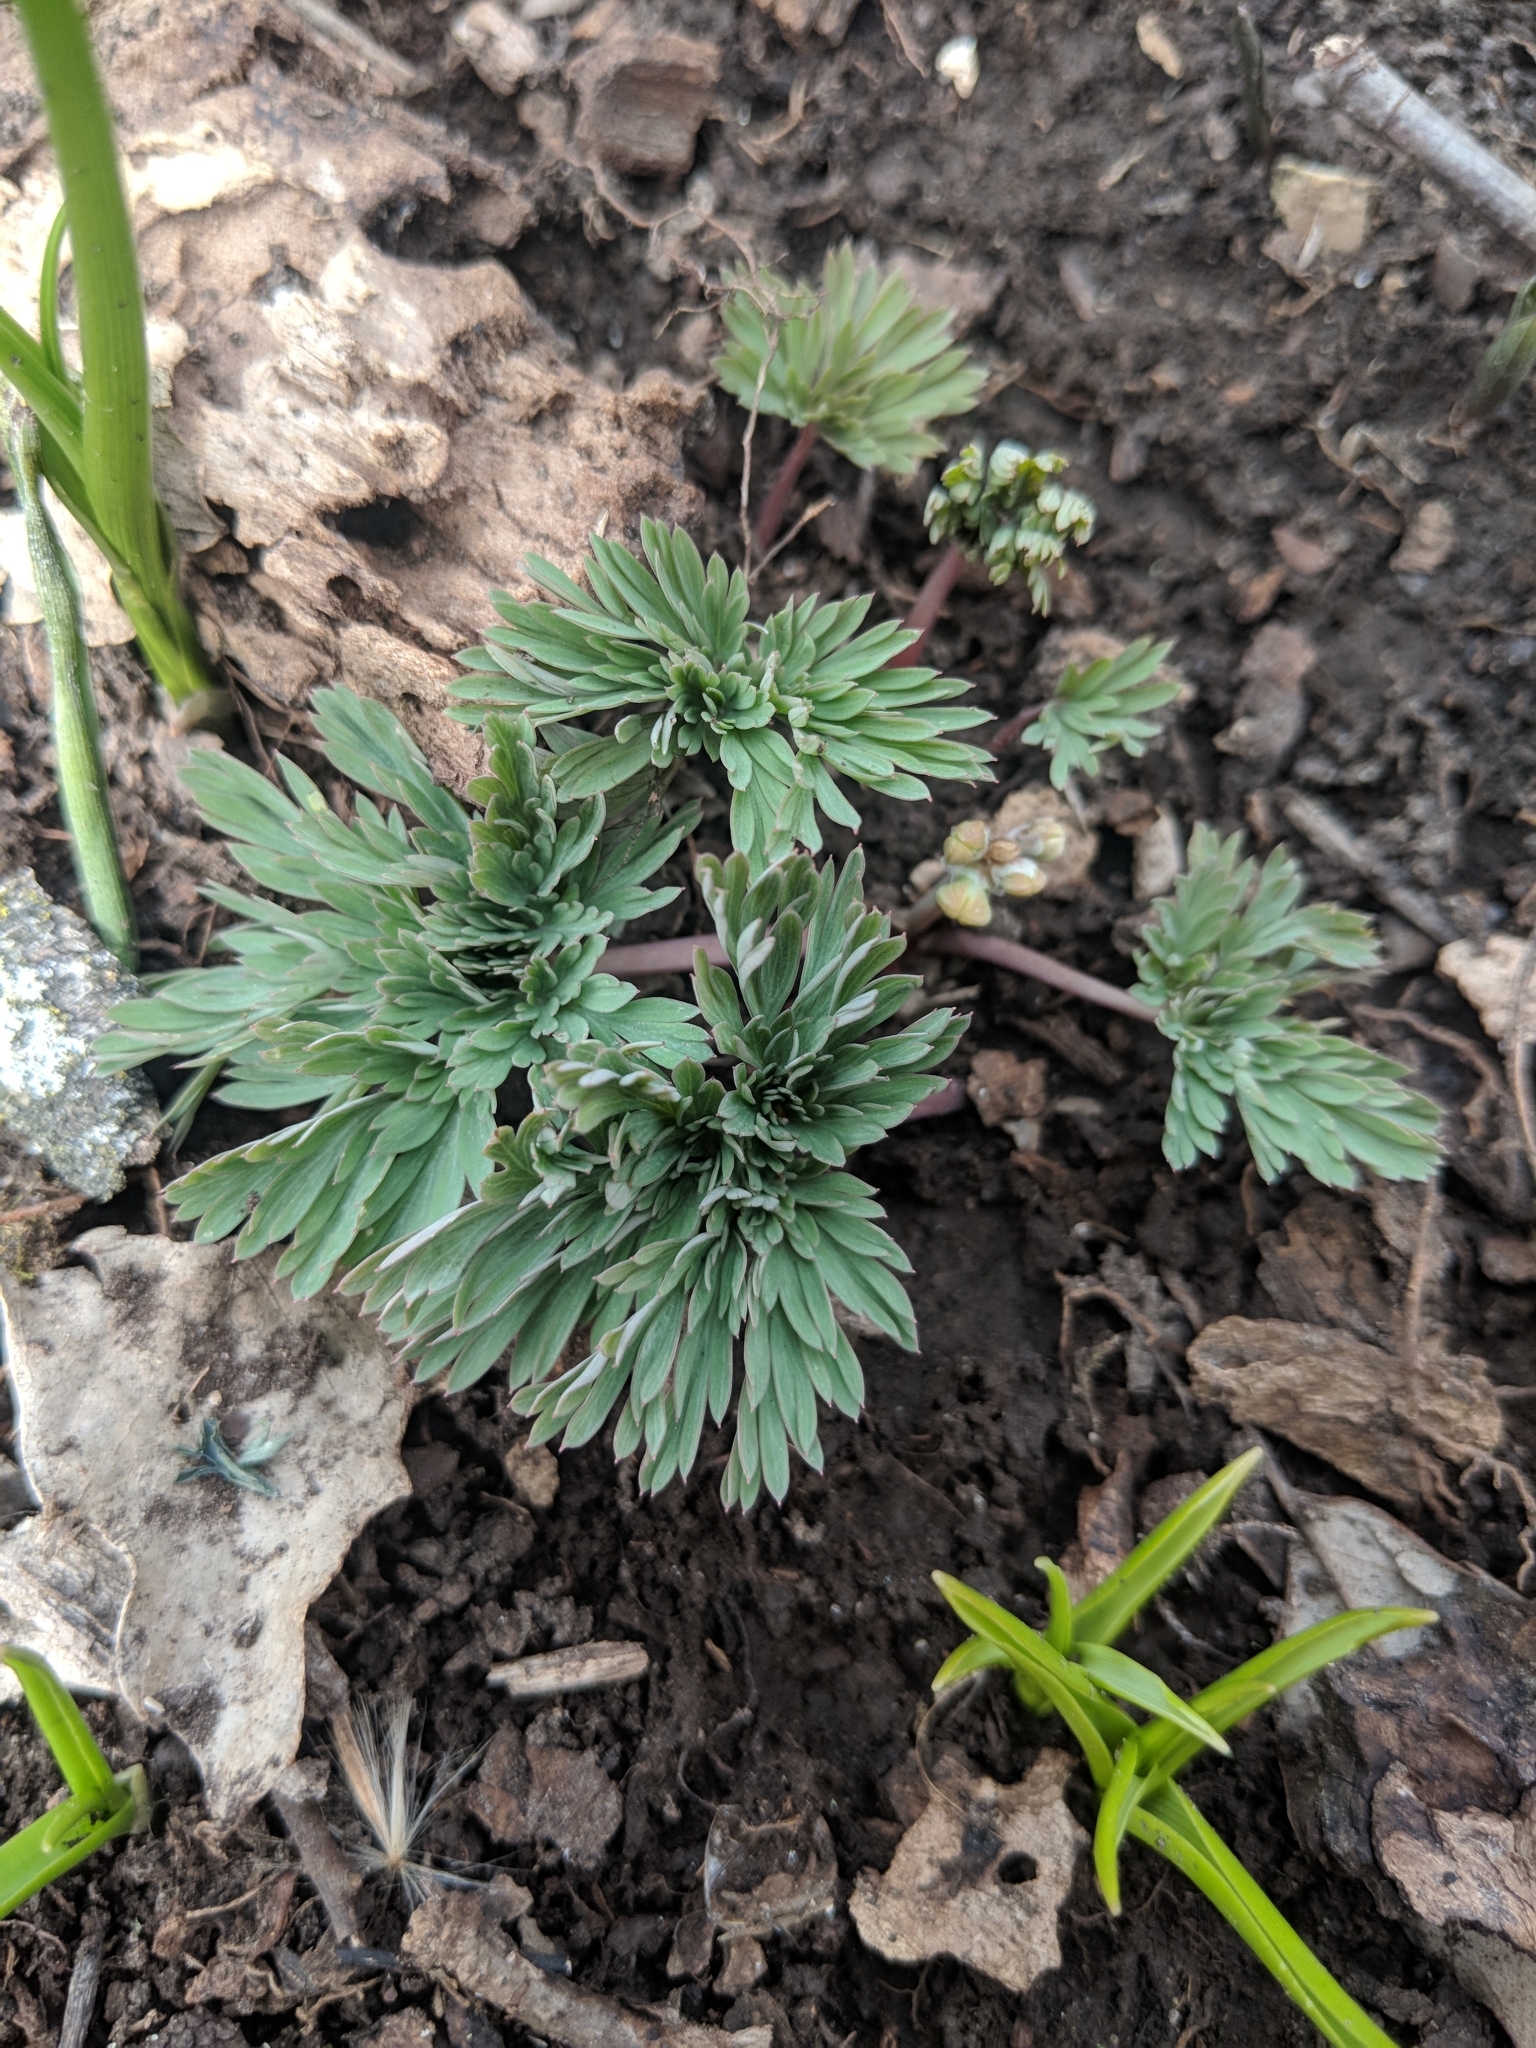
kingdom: Plantae
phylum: Tracheophyta
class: Magnoliopsida
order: Ranunculales
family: Papaveraceae
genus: Dicentra
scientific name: Dicentra cucullaria
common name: Dutchman's breeches
